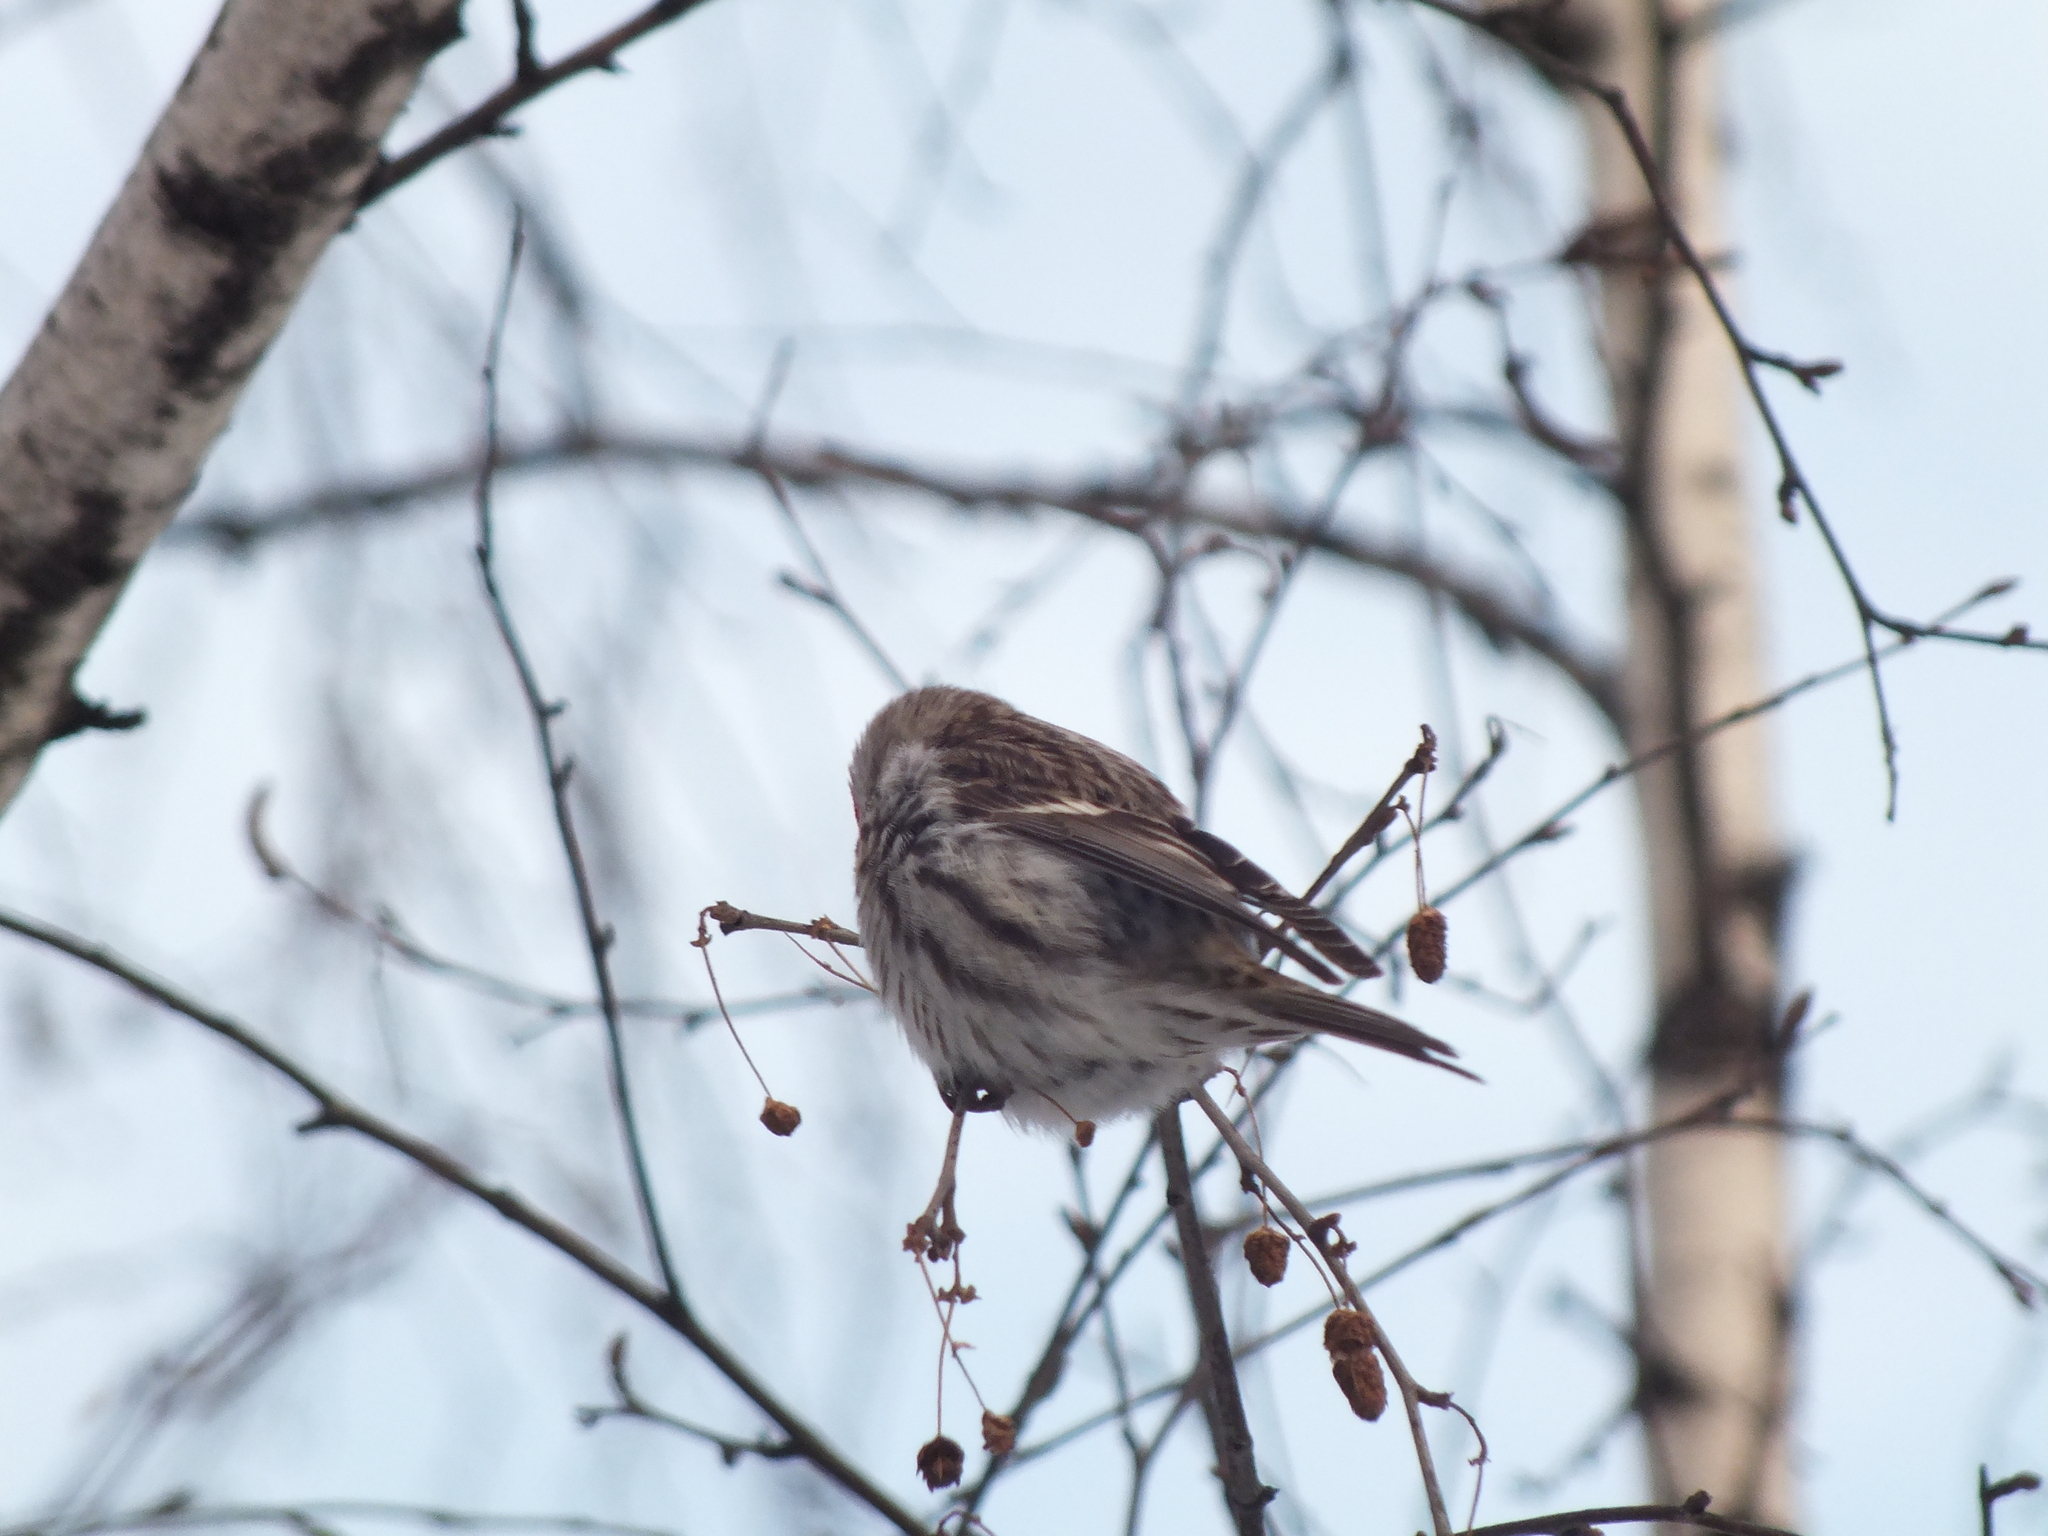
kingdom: Animalia
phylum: Chordata
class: Aves
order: Passeriformes
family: Fringillidae
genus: Acanthis
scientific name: Acanthis flammea
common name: Common redpoll
